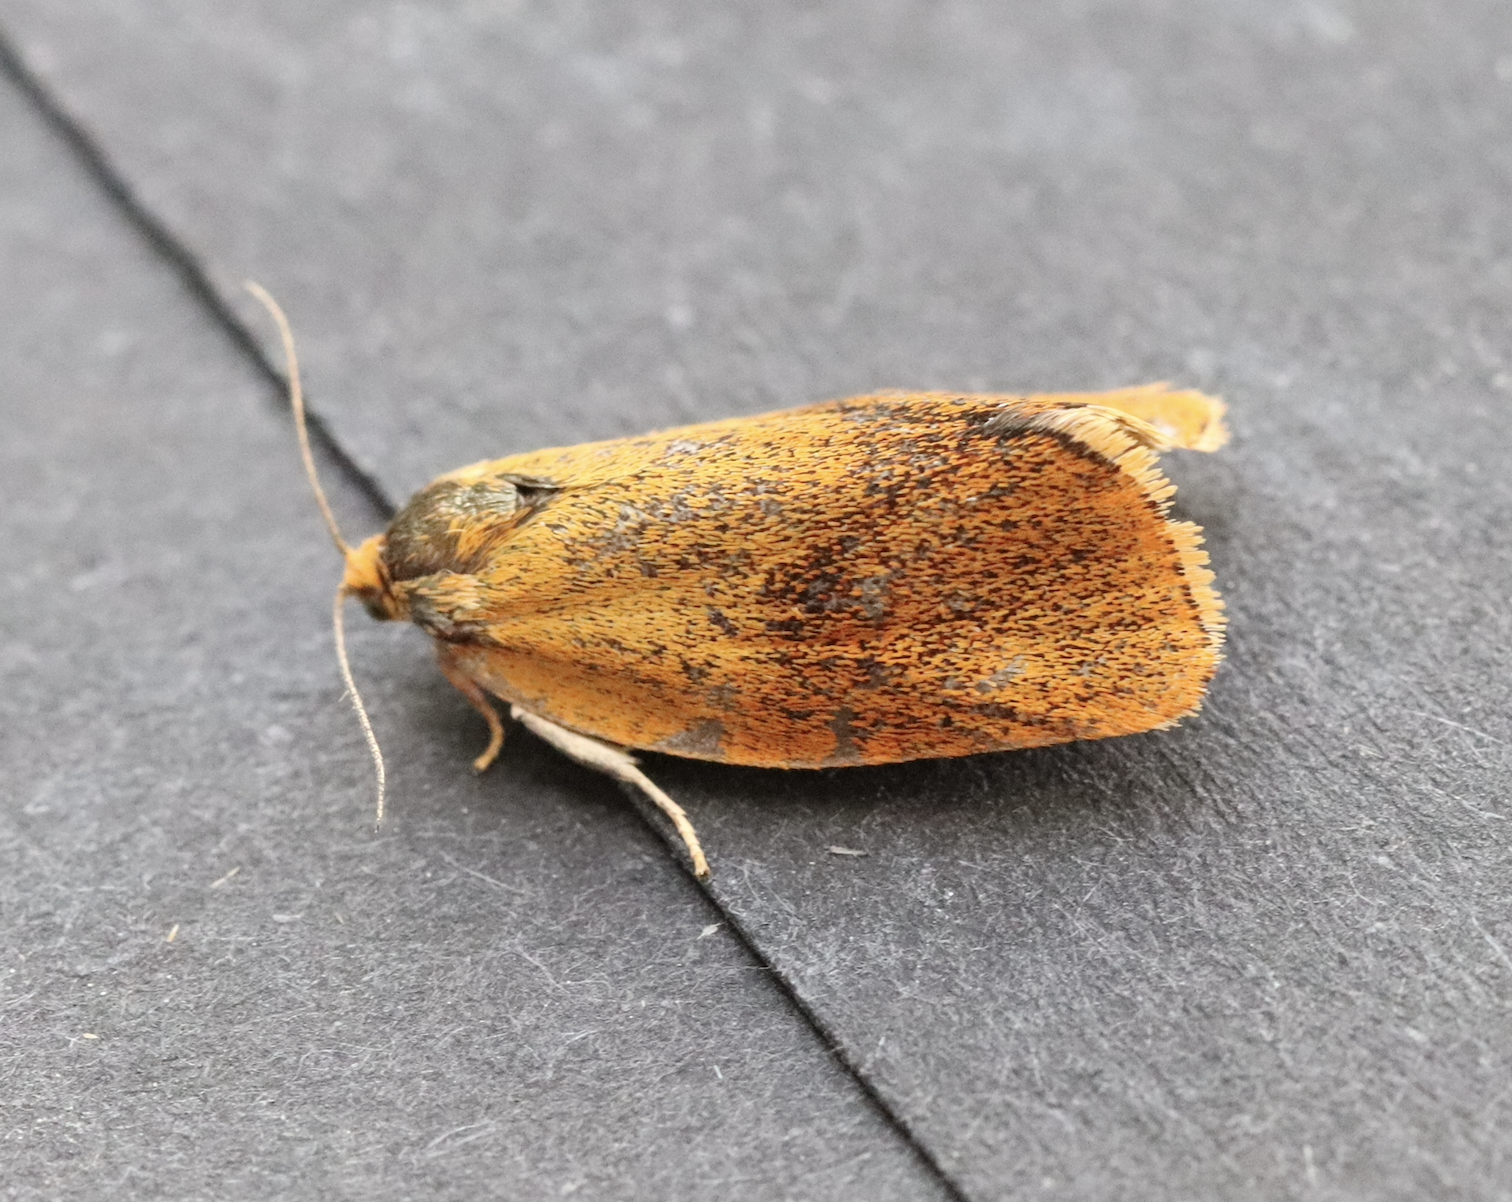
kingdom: Animalia
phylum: Arthropoda
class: Insecta
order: Lepidoptera
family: Tortricidae
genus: Ptycholoma
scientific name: Ptycholoma lecheana
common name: Leches twist moth
